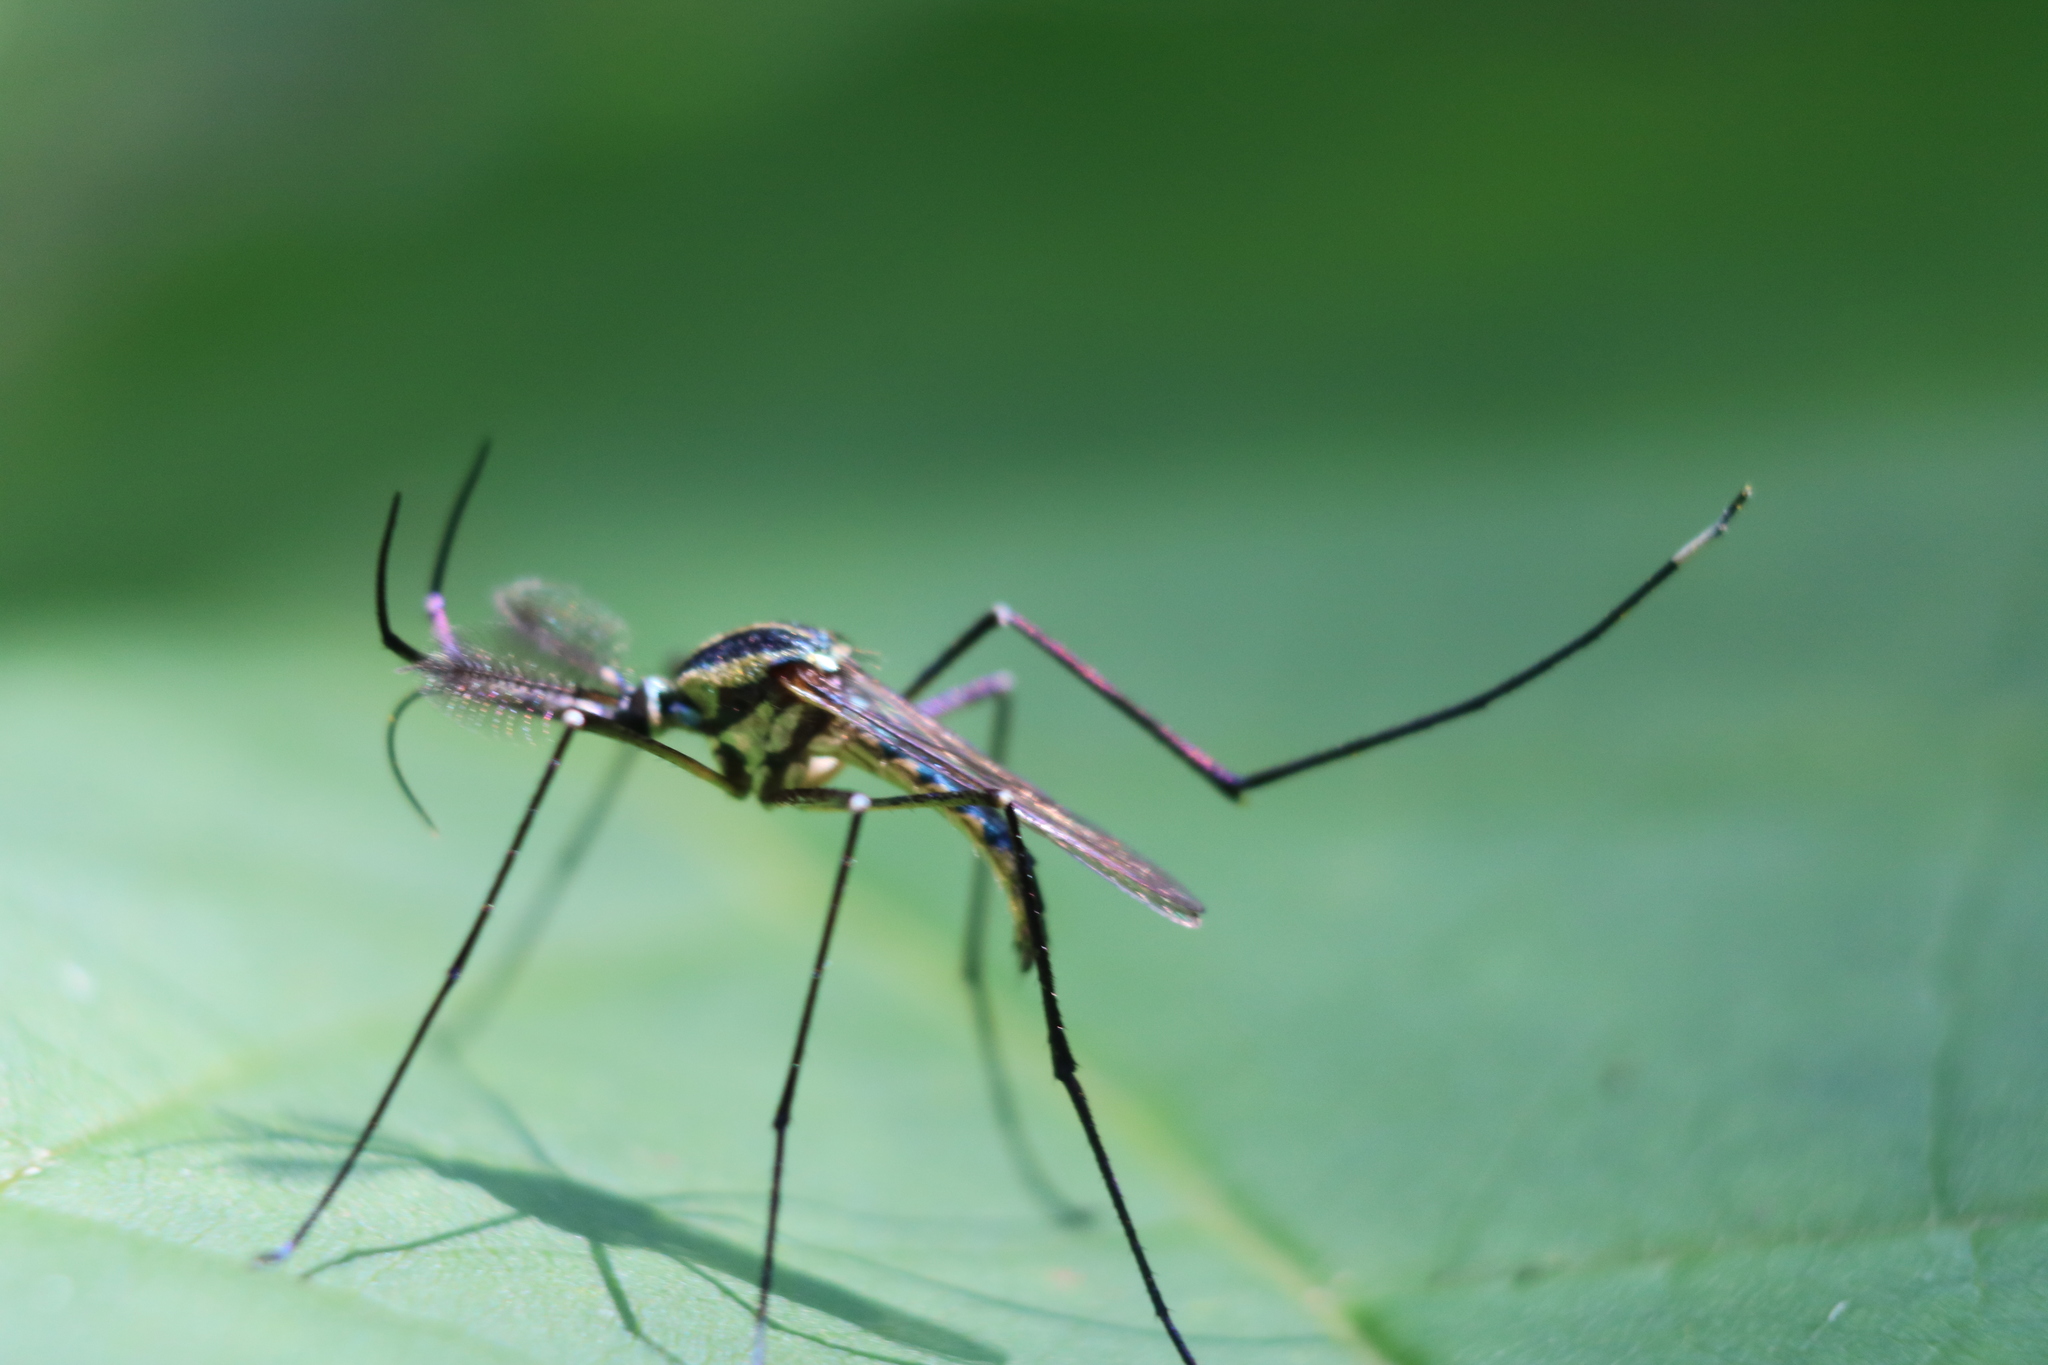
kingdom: Animalia
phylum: Arthropoda
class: Insecta
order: Diptera
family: Culicidae
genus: Toxorhynchites
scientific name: Toxorhynchites rutilus
